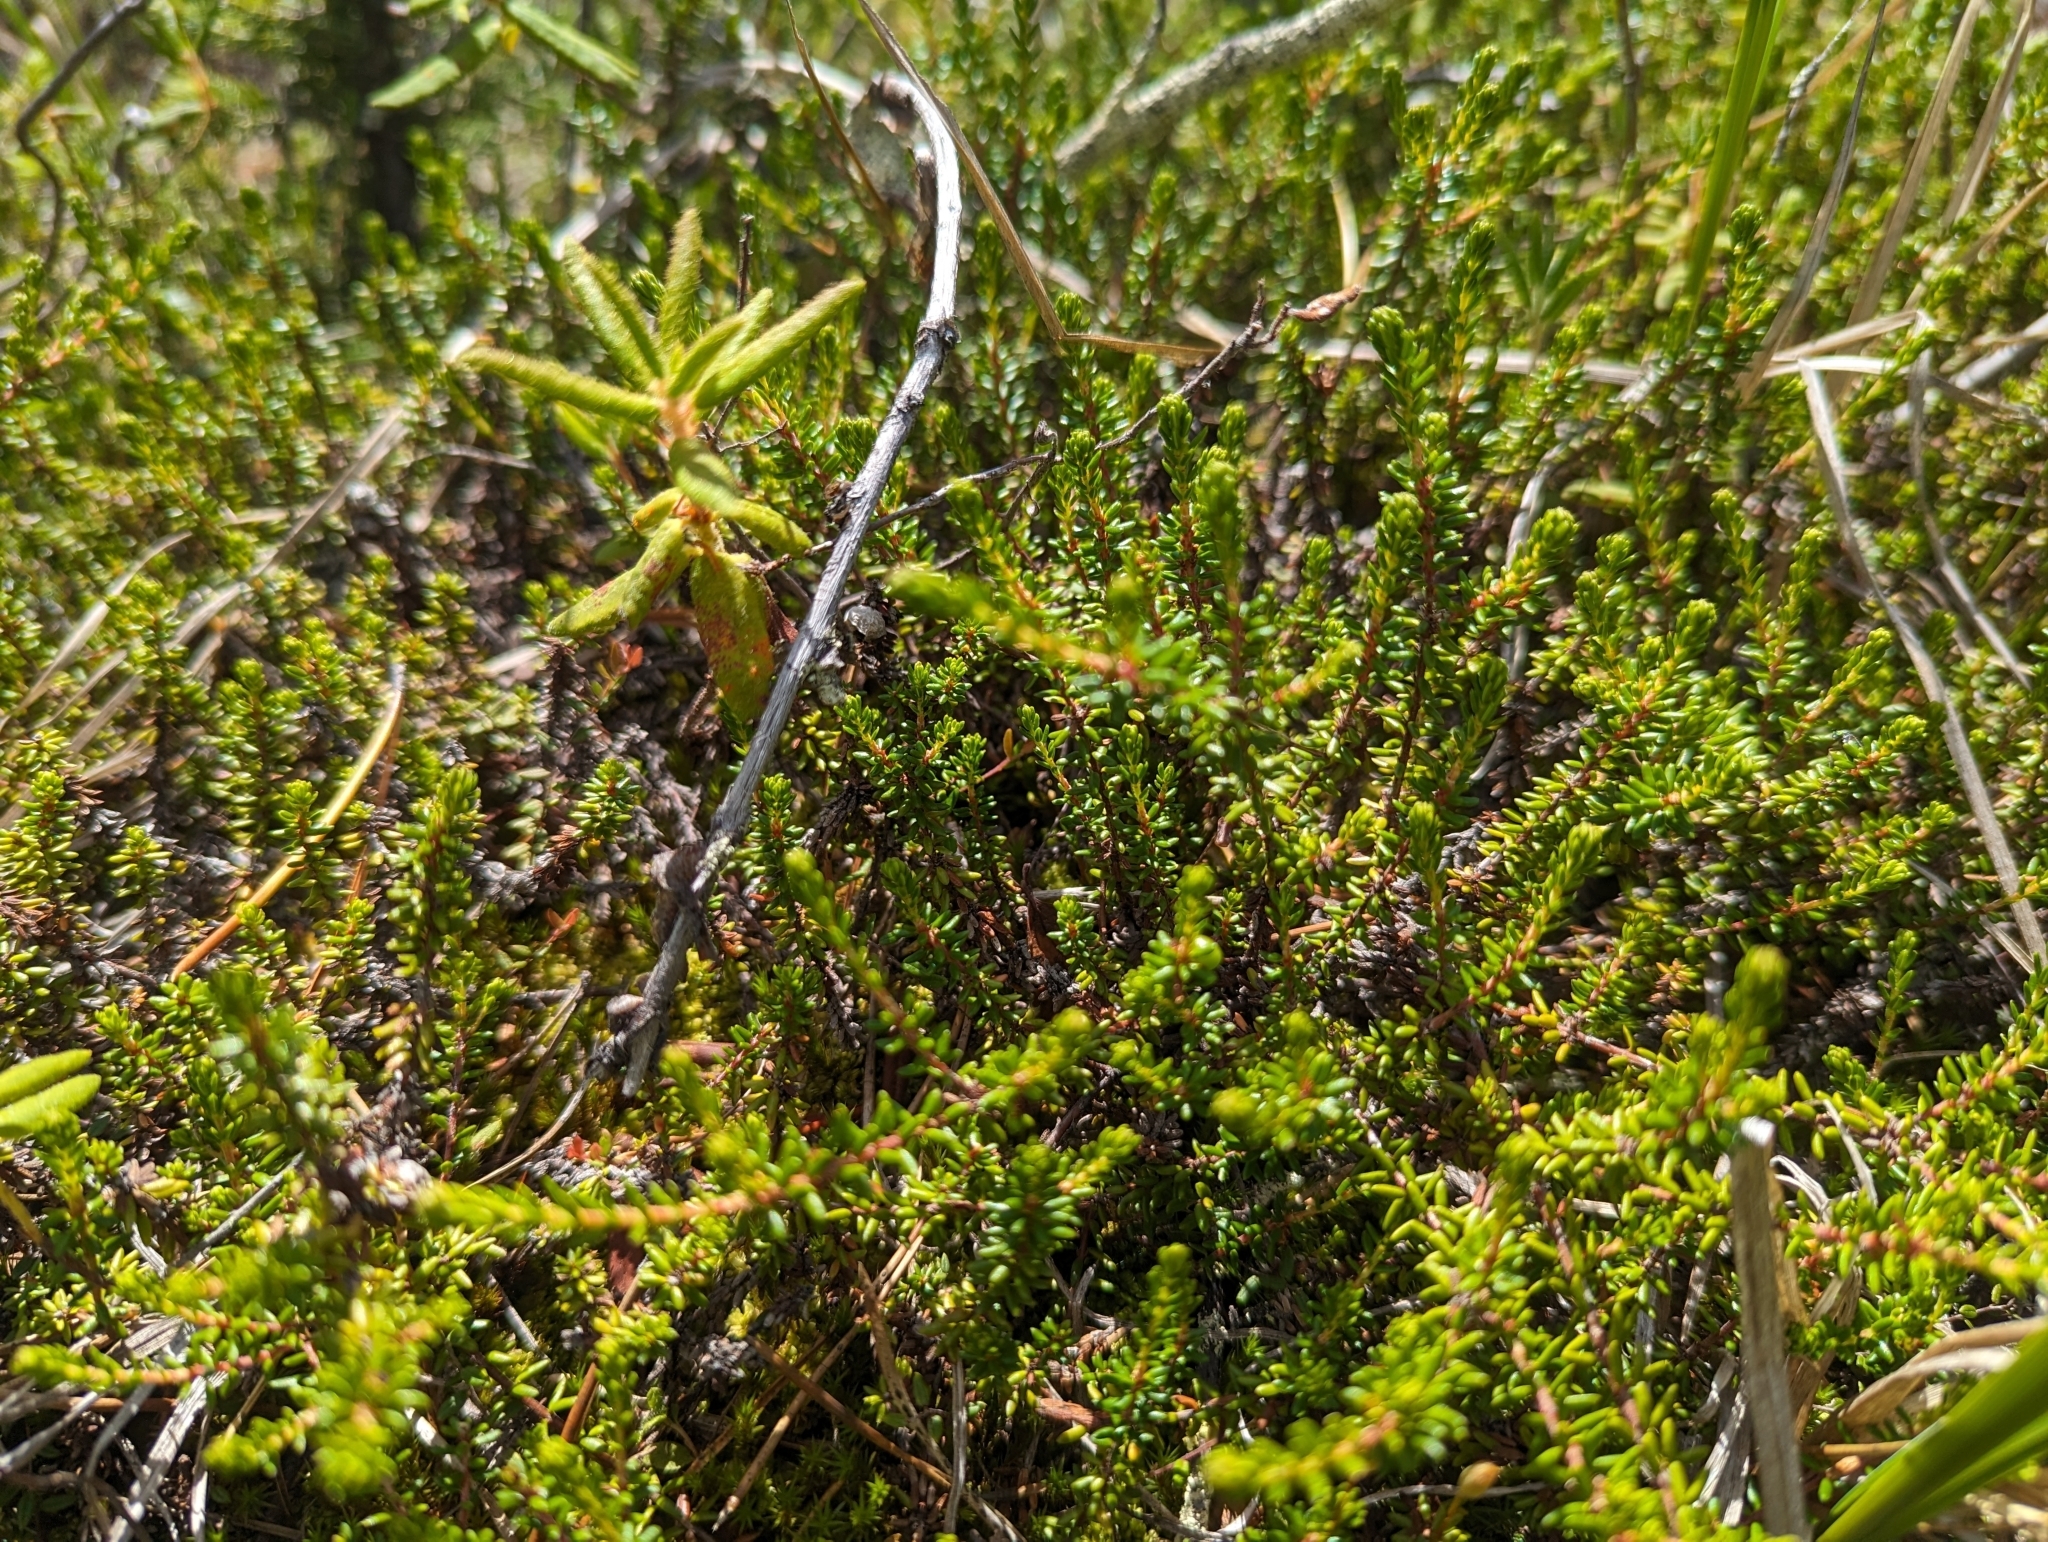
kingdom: Plantae
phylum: Tracheophyta
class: Magnoliopsida
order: Ericales
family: Ericaceae
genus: Empetrum
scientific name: Empetrum nigrum
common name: Black crowberry
